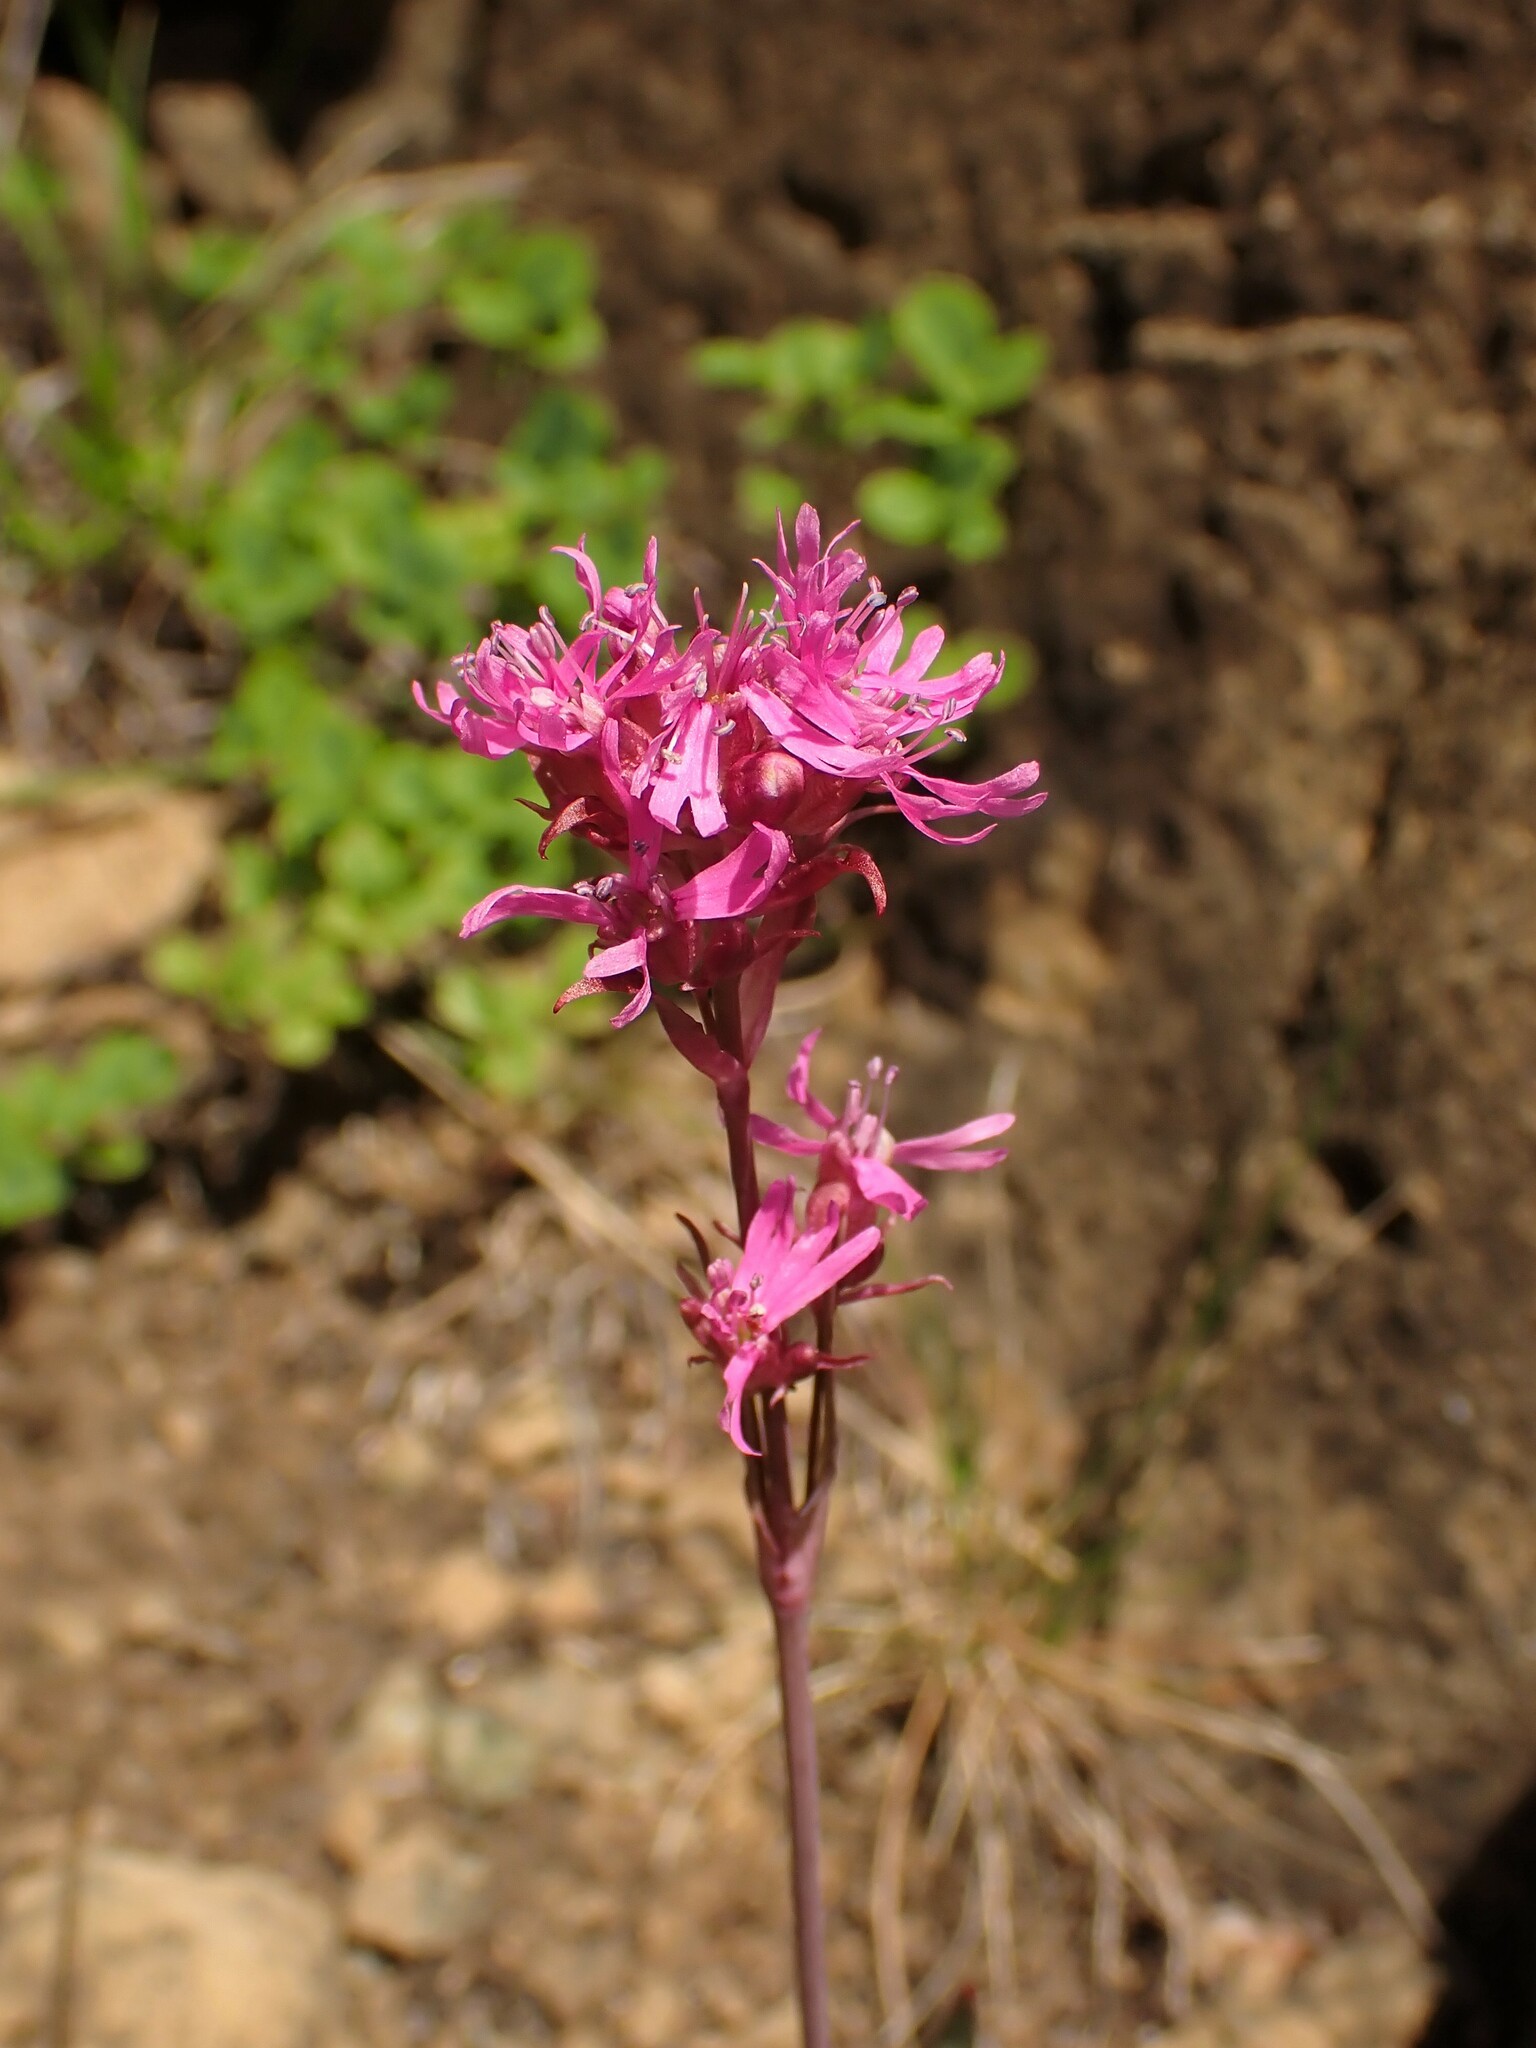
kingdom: Plantae
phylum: Tracheophyta
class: Magnoliopsida
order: Caryophyllales
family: Caryophyllaceae
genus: Viscaria
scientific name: Viscaria alpina
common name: Alpine campion
